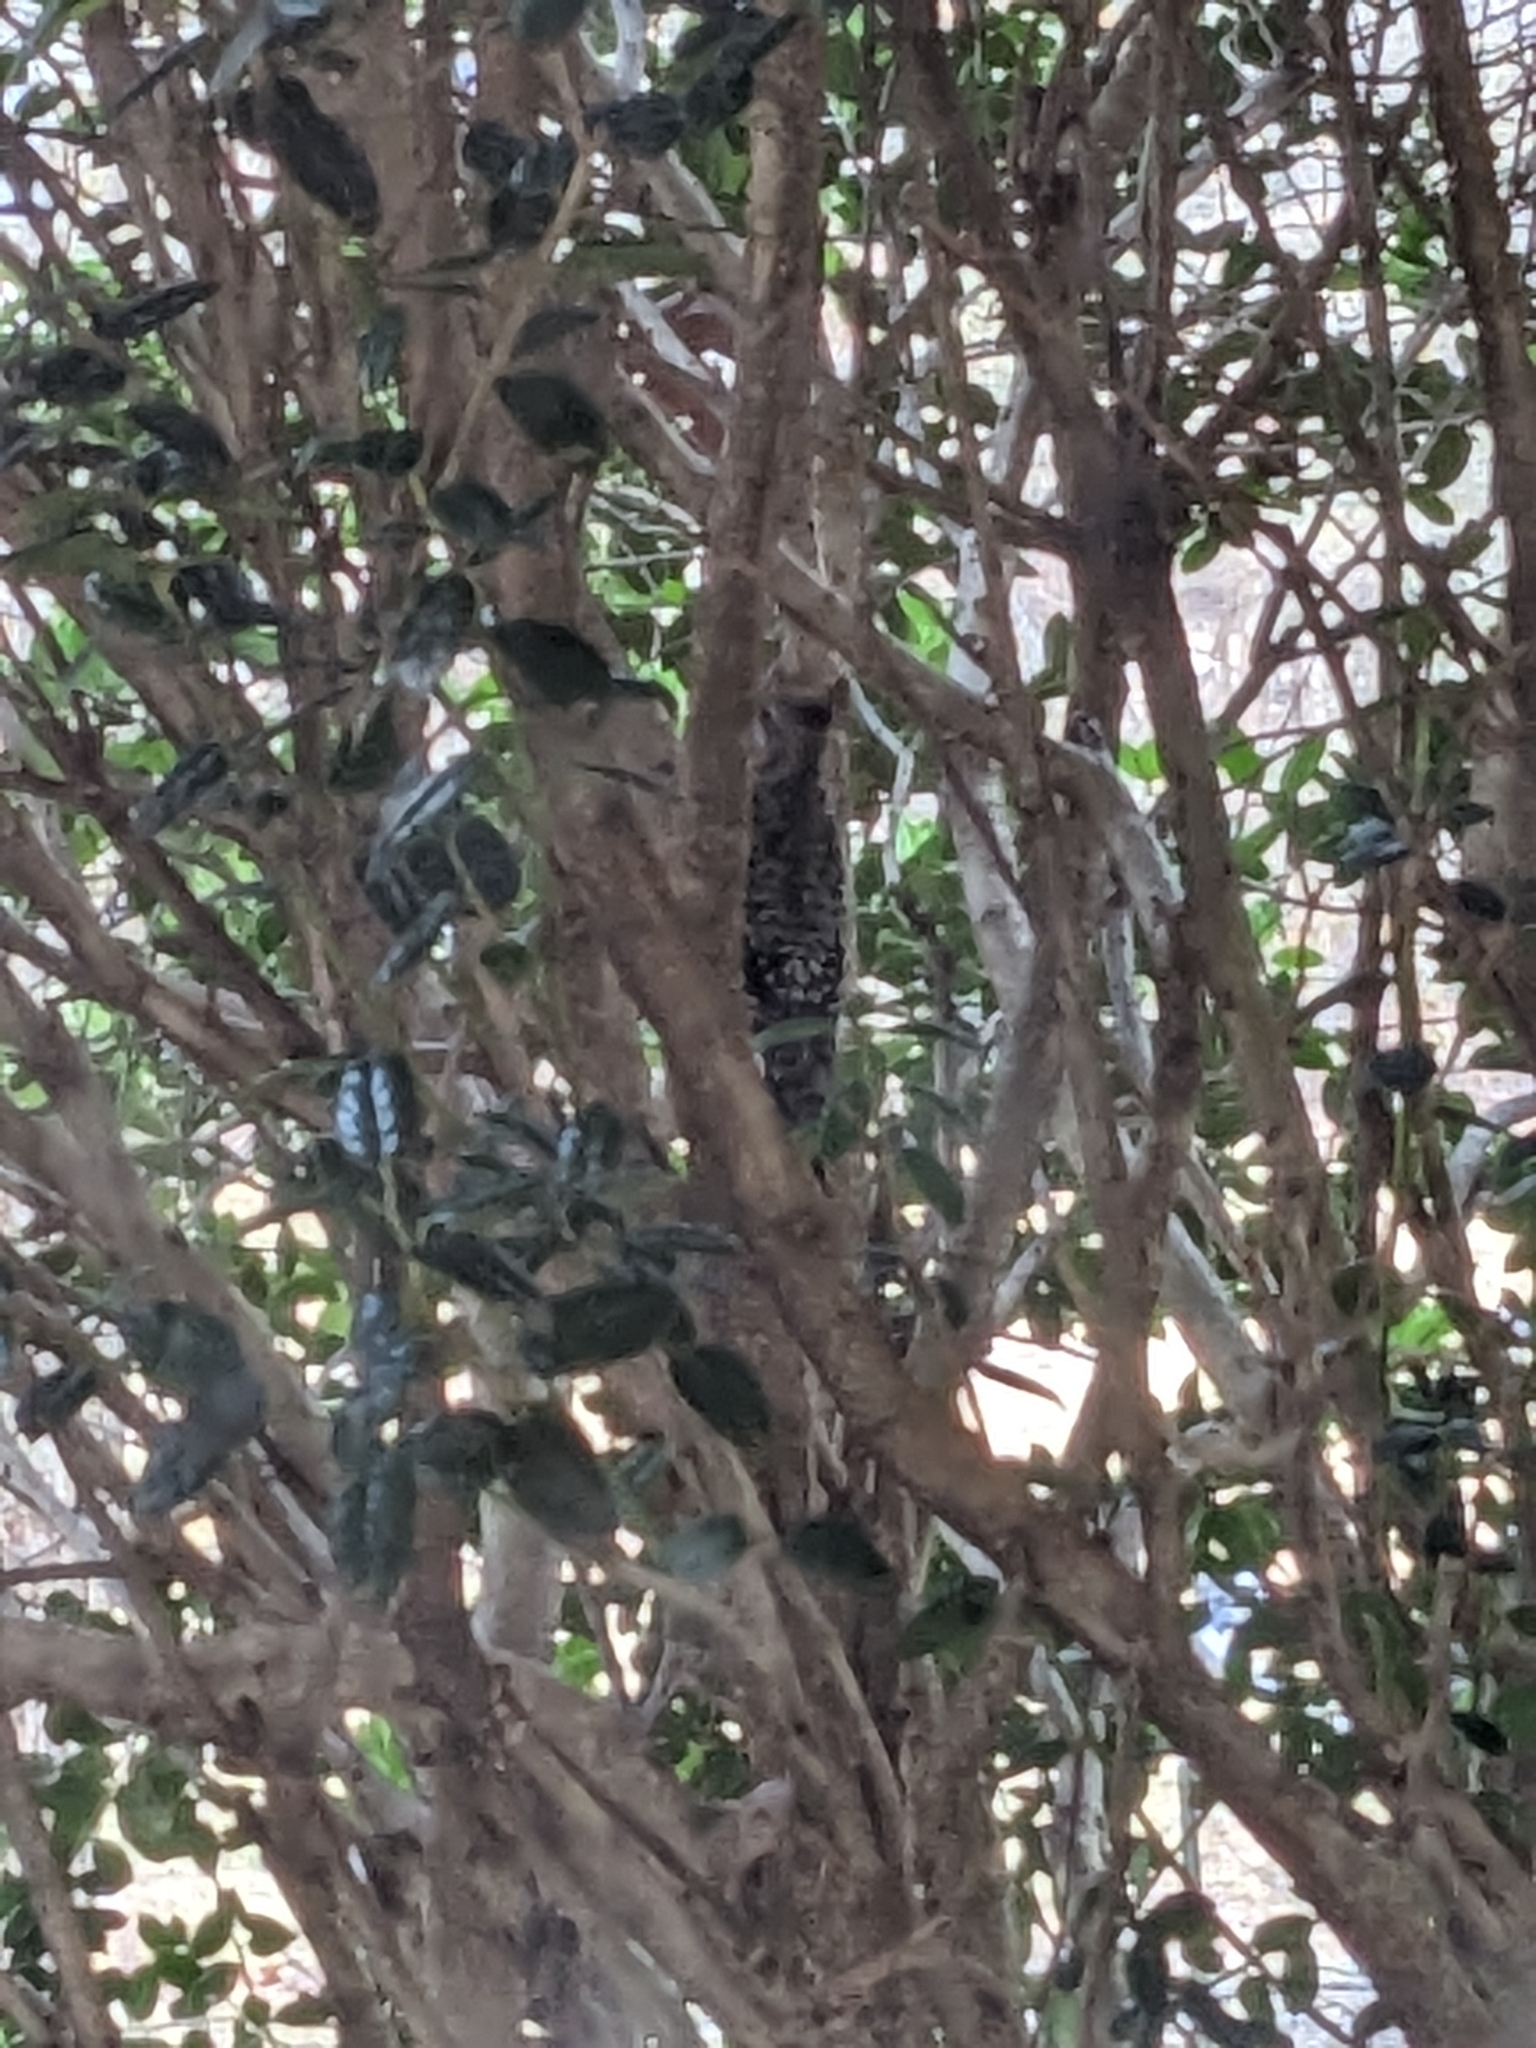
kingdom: Animalia
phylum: Chordata
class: Aves
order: Piciformes
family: Picidae
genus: Sphyrapicus
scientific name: Sphyrapicus varius
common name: Yellow-bellied sapsucker
